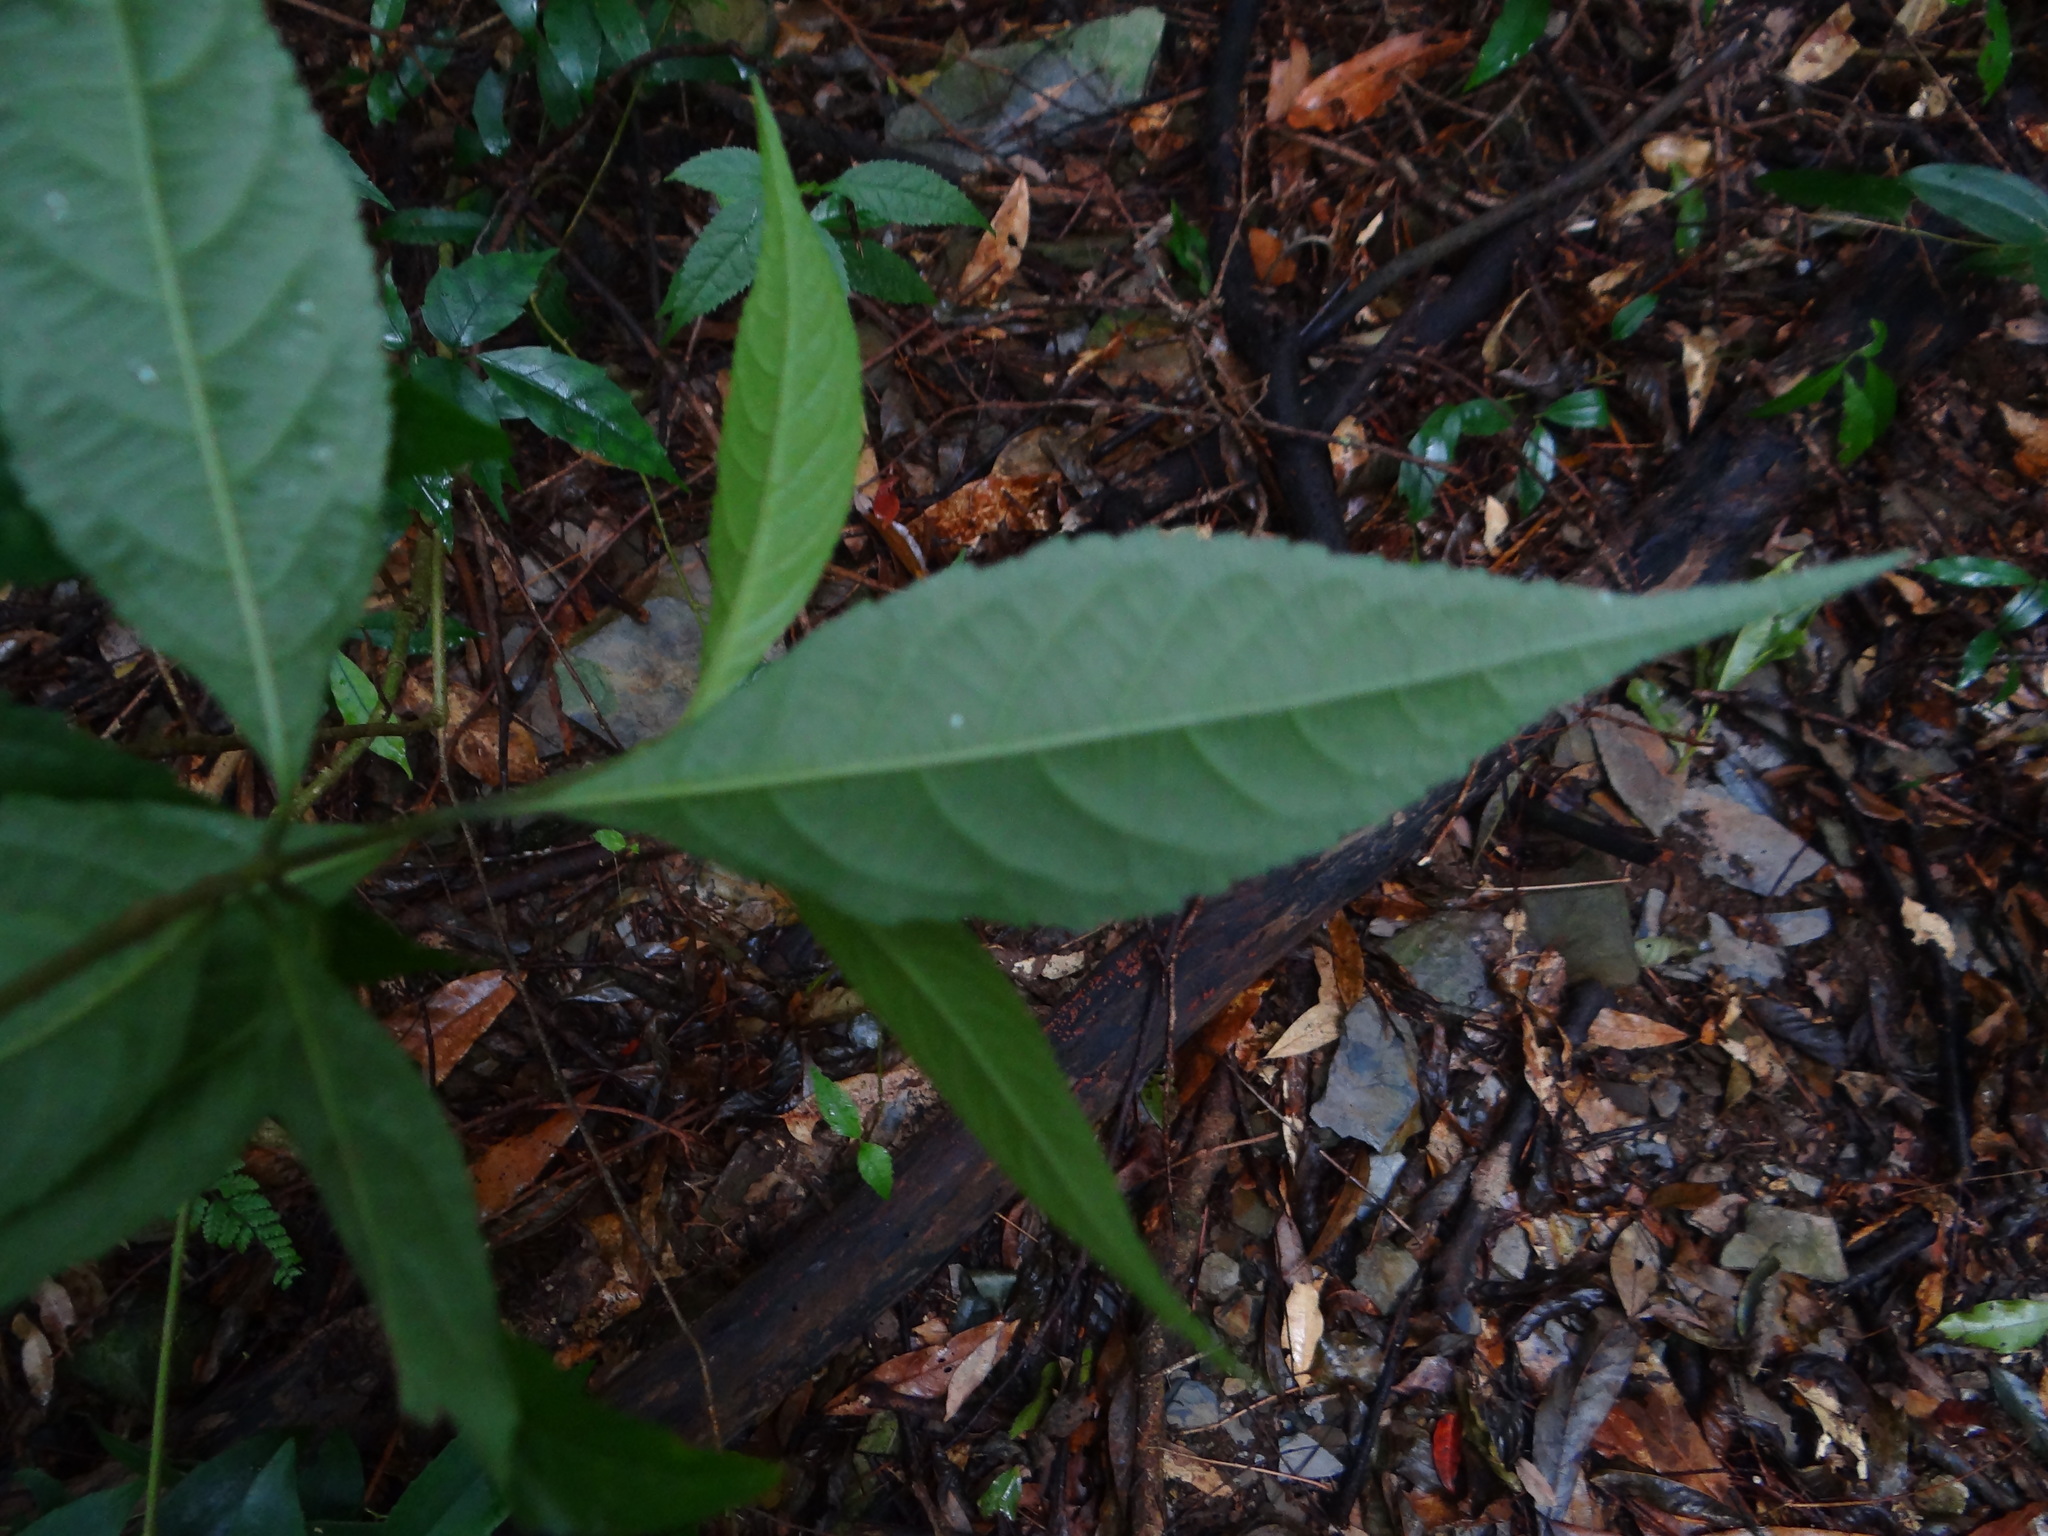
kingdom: Plantae
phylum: Tracheophyta
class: Magnoliopsida
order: Lamiales
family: Lamiaceae
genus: Callicarpa
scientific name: Callicarpa randaiensis
